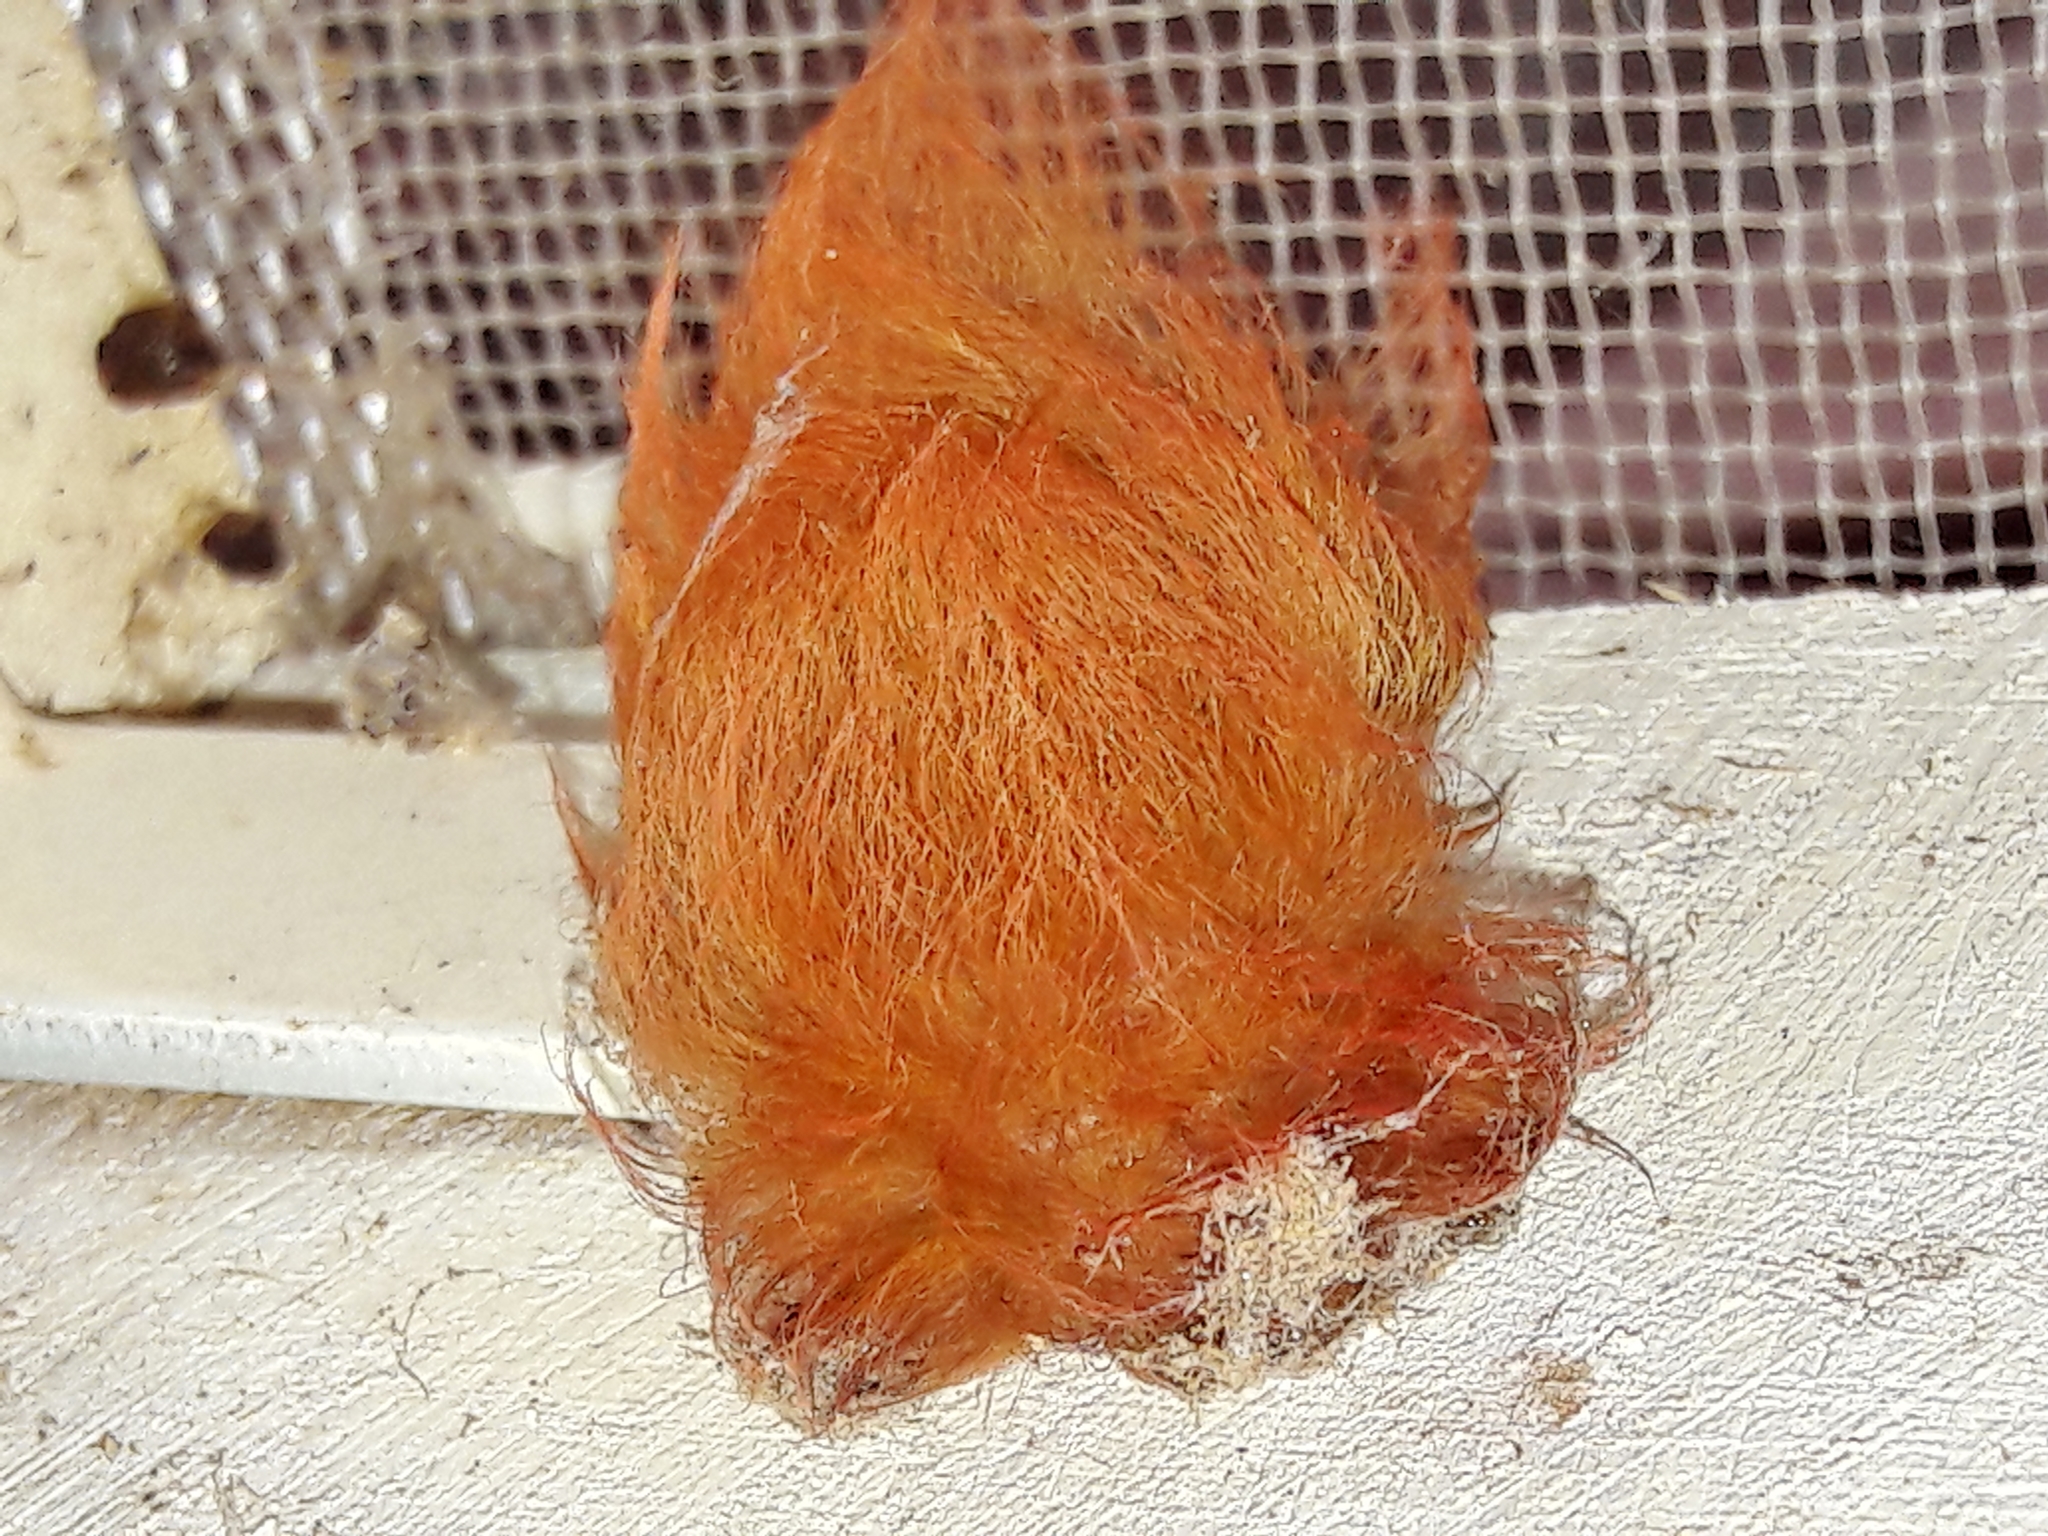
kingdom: Animalia
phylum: Arthropoda
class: Insecta
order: Lepidoptera
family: Megalopygidae
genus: Megalopyge
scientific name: Megalopyge albicollis
